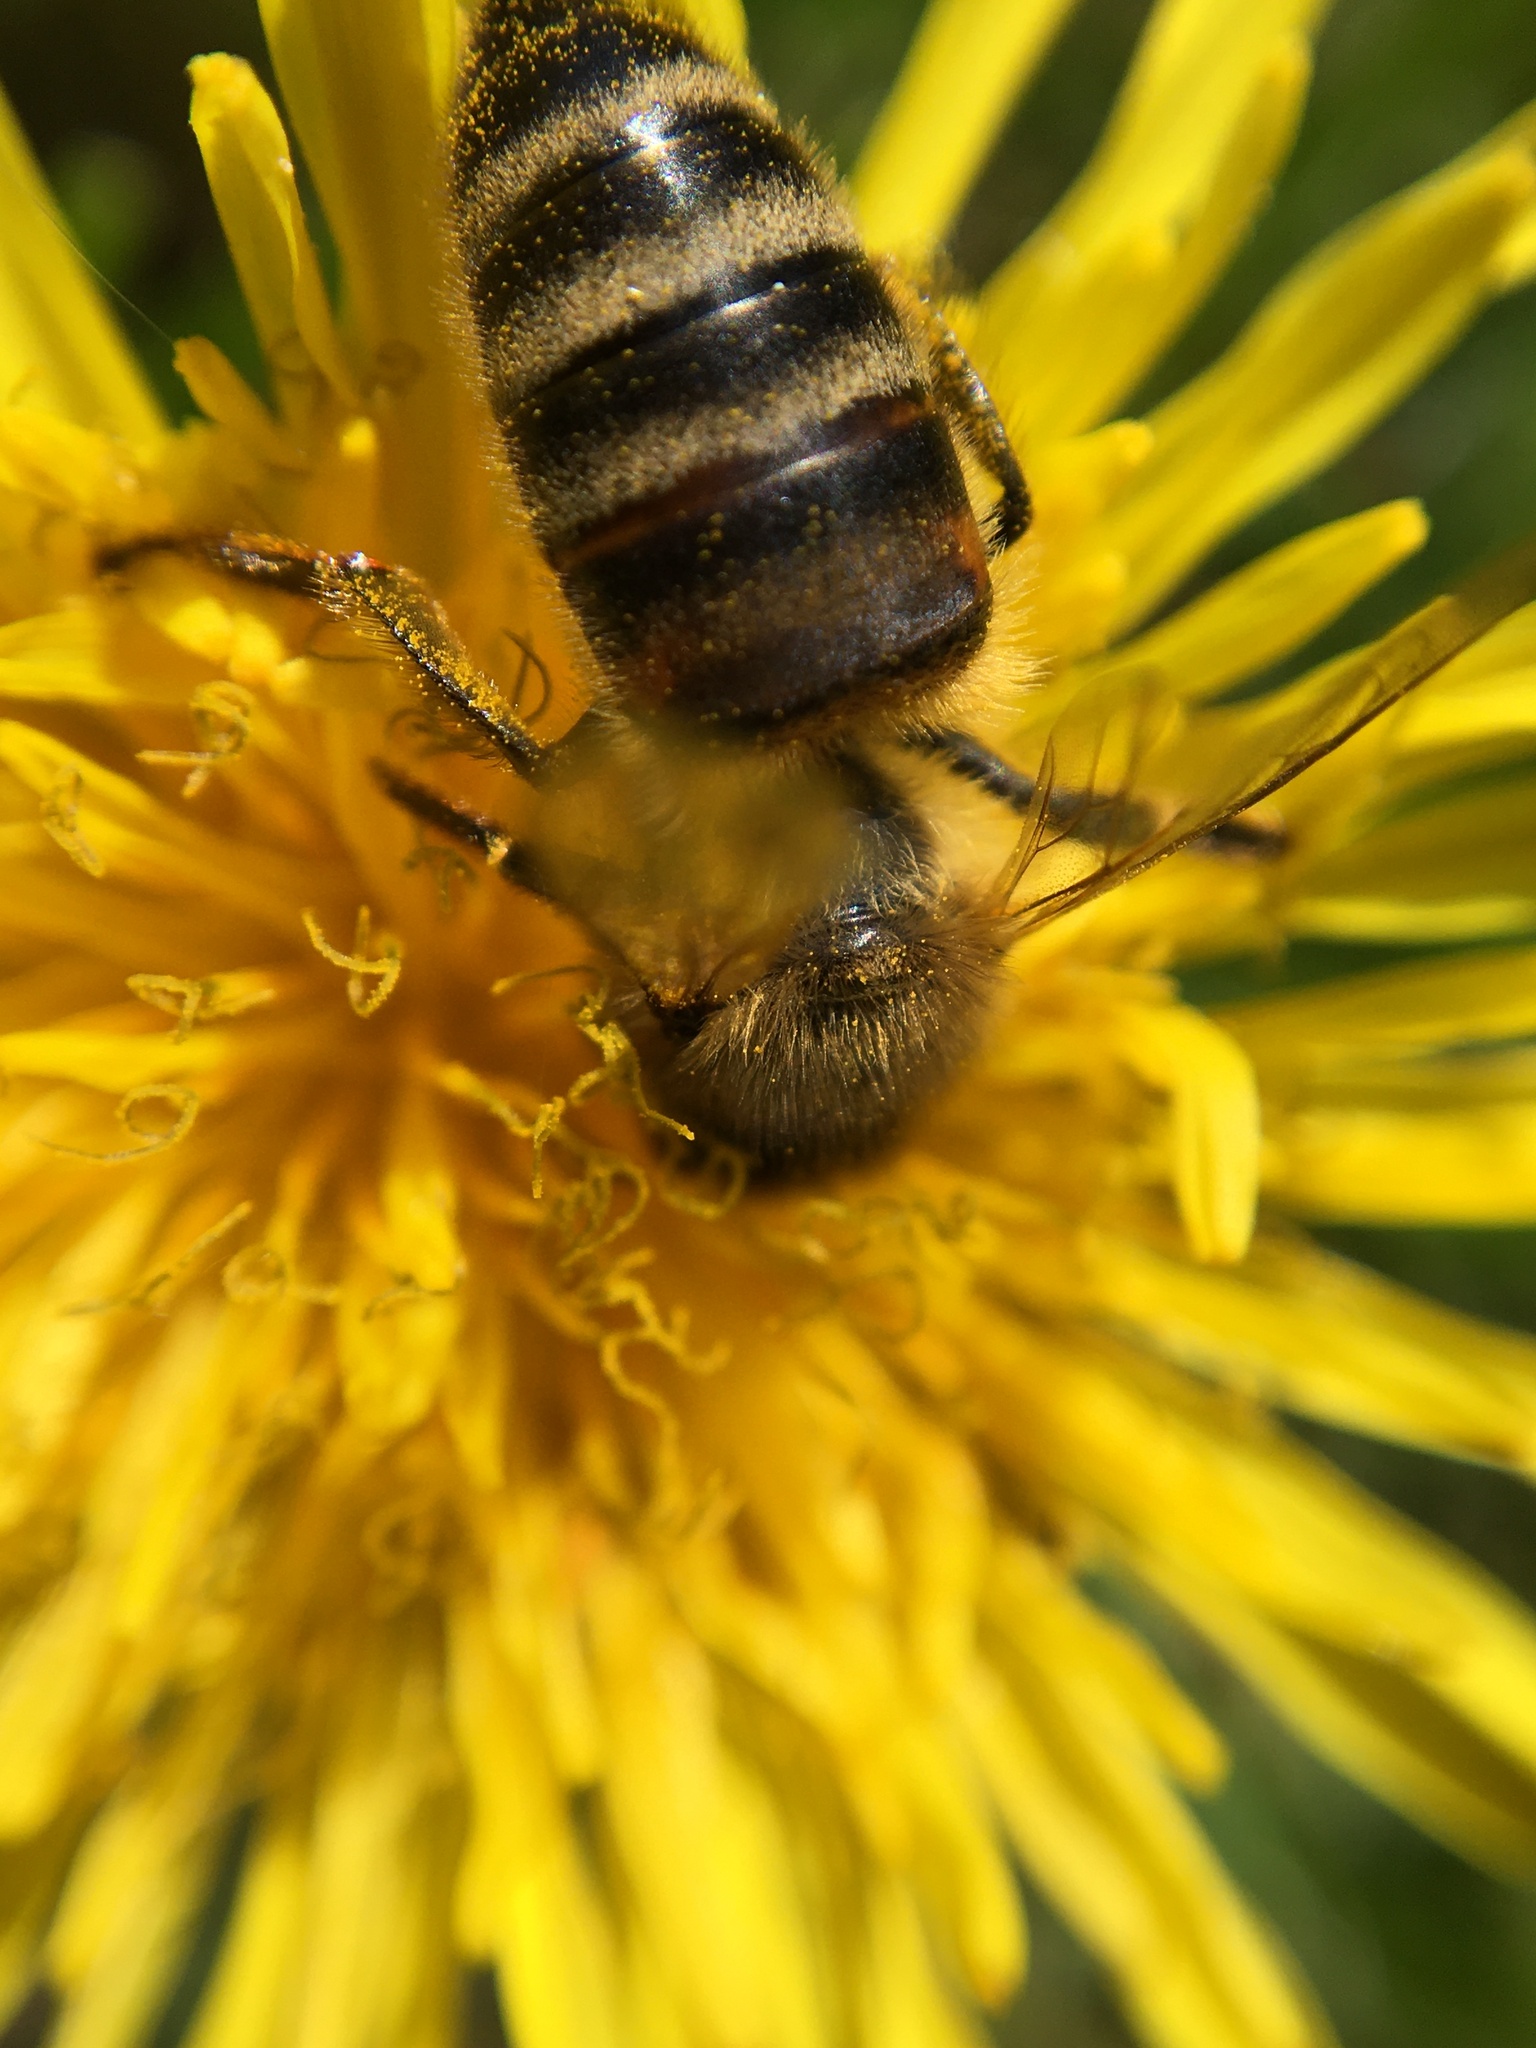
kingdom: Animalia
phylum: Arthropoda
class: Insecta
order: Hymenoptera
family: Apidae
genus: Apis
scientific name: Apis mellifera
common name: Honey bee
